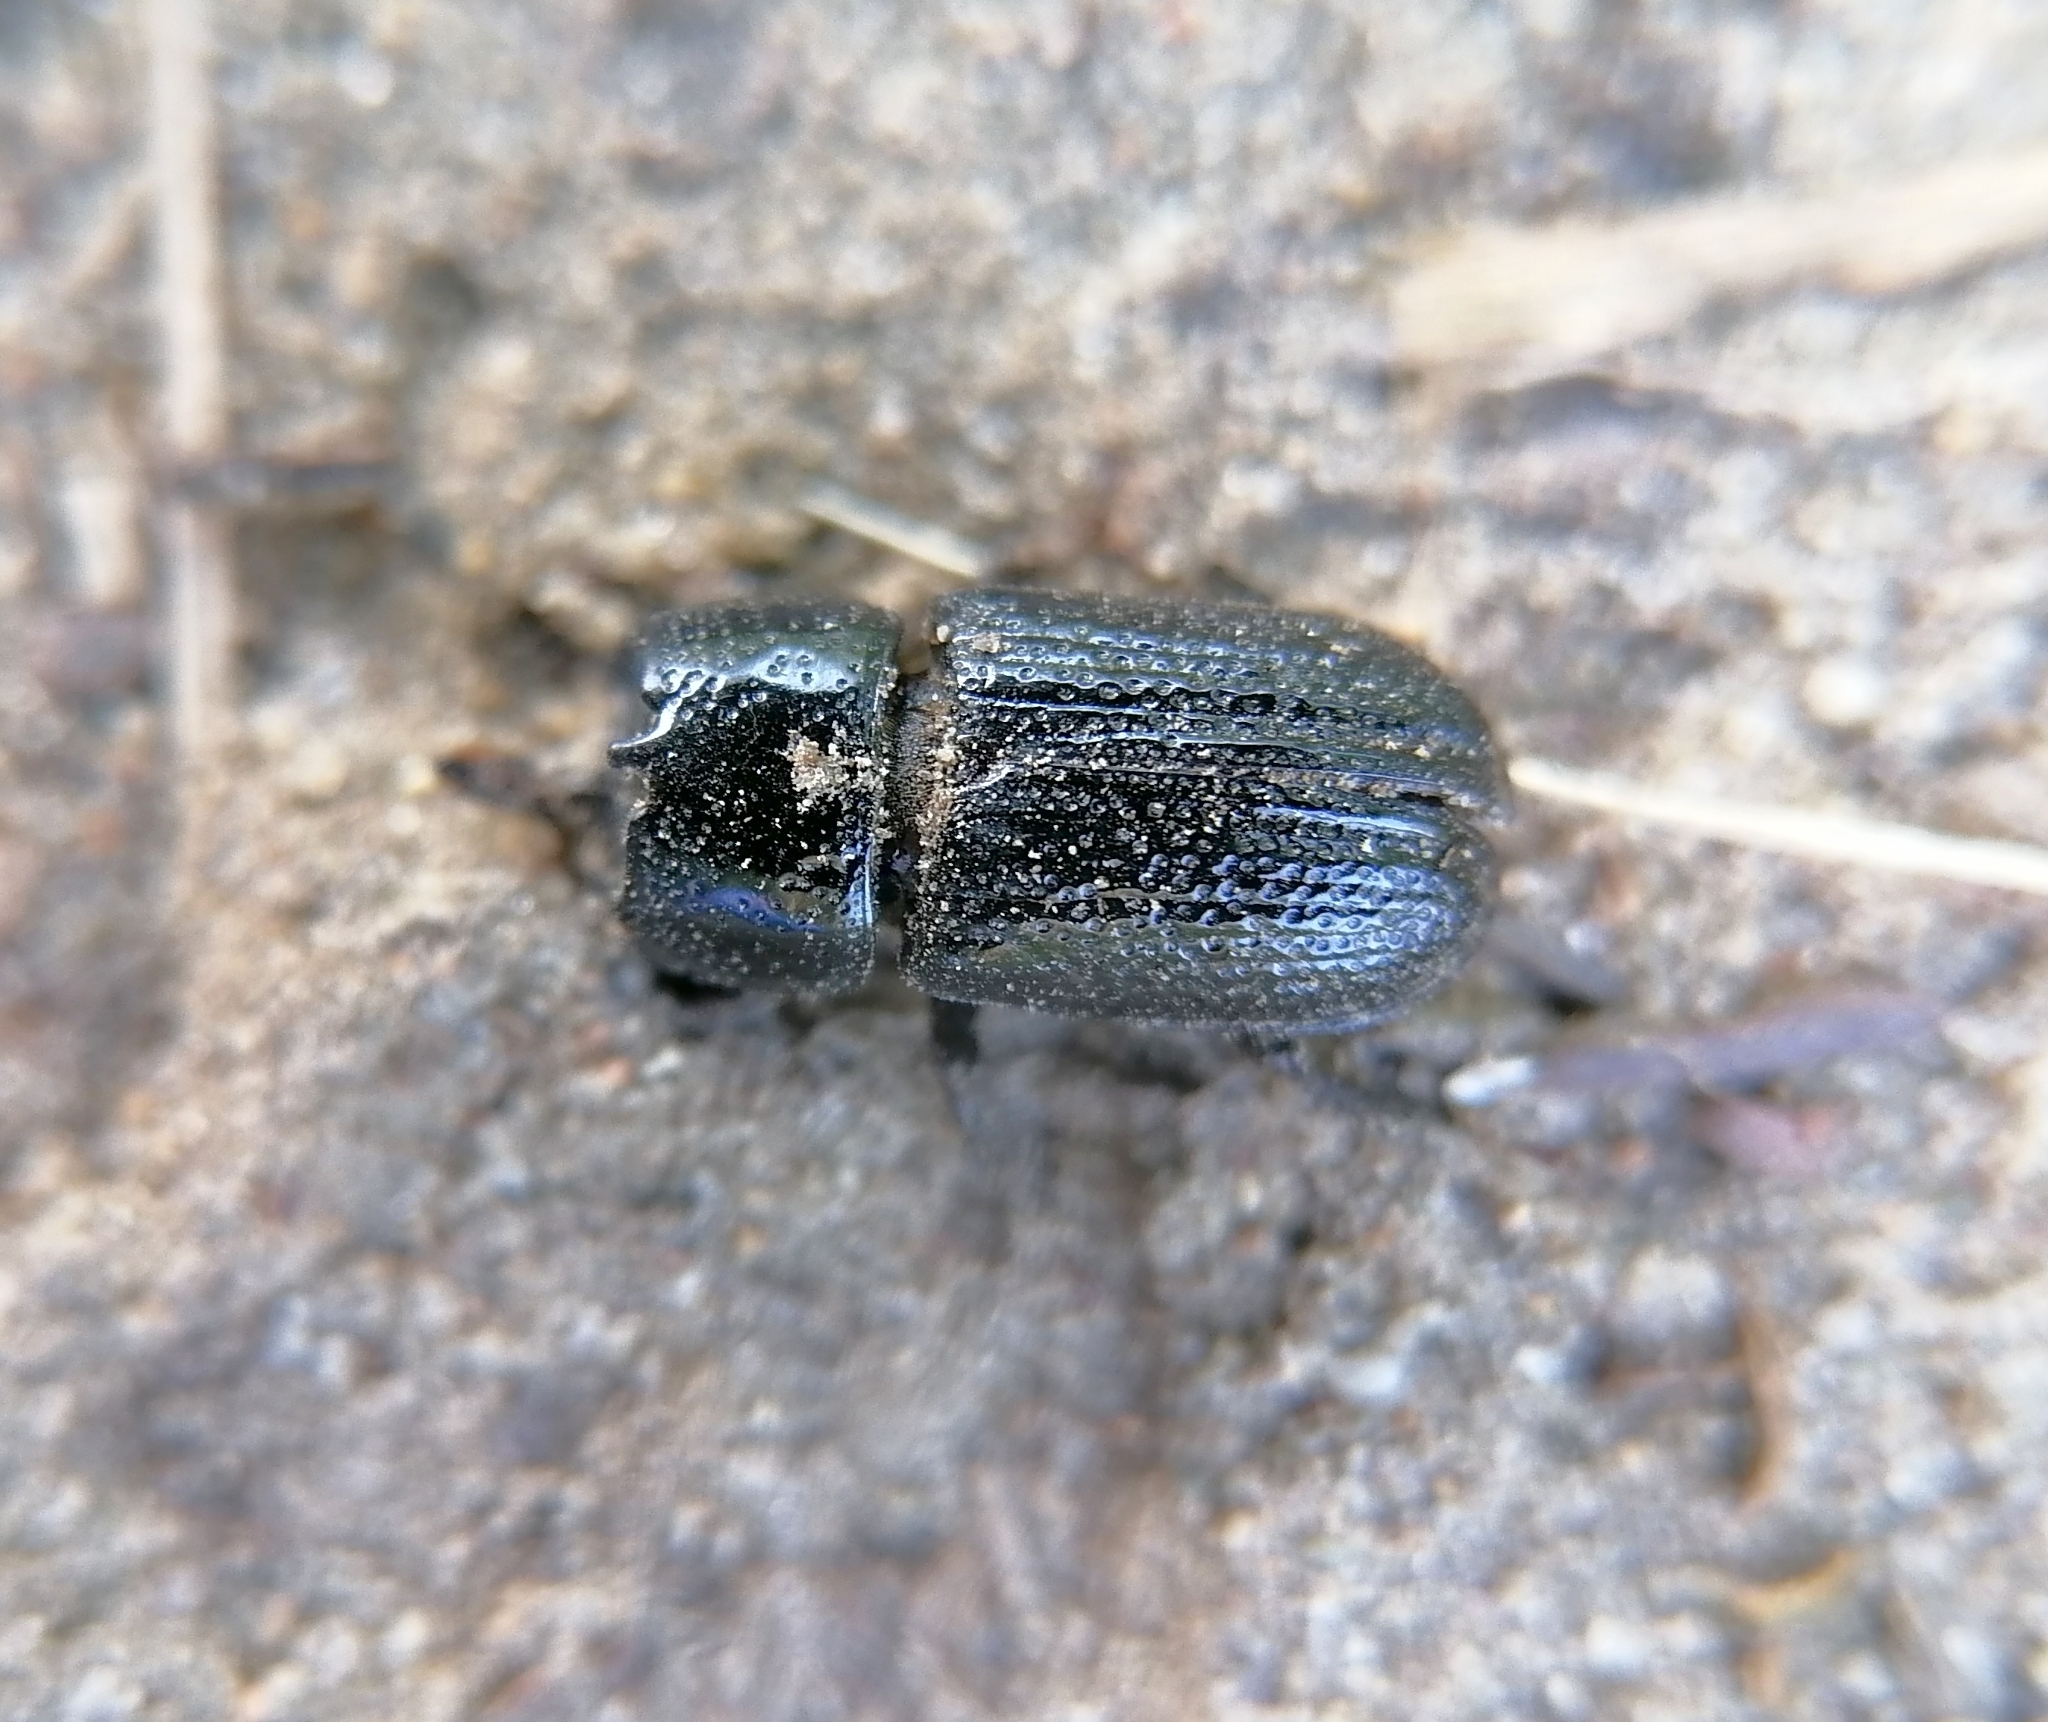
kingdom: Animalia
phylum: Arthropoda
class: Insecta
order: Coleoptera
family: Lucanidae
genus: Sinodendron
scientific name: Sinodendron cylindricum
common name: Rhinoceros beetle
